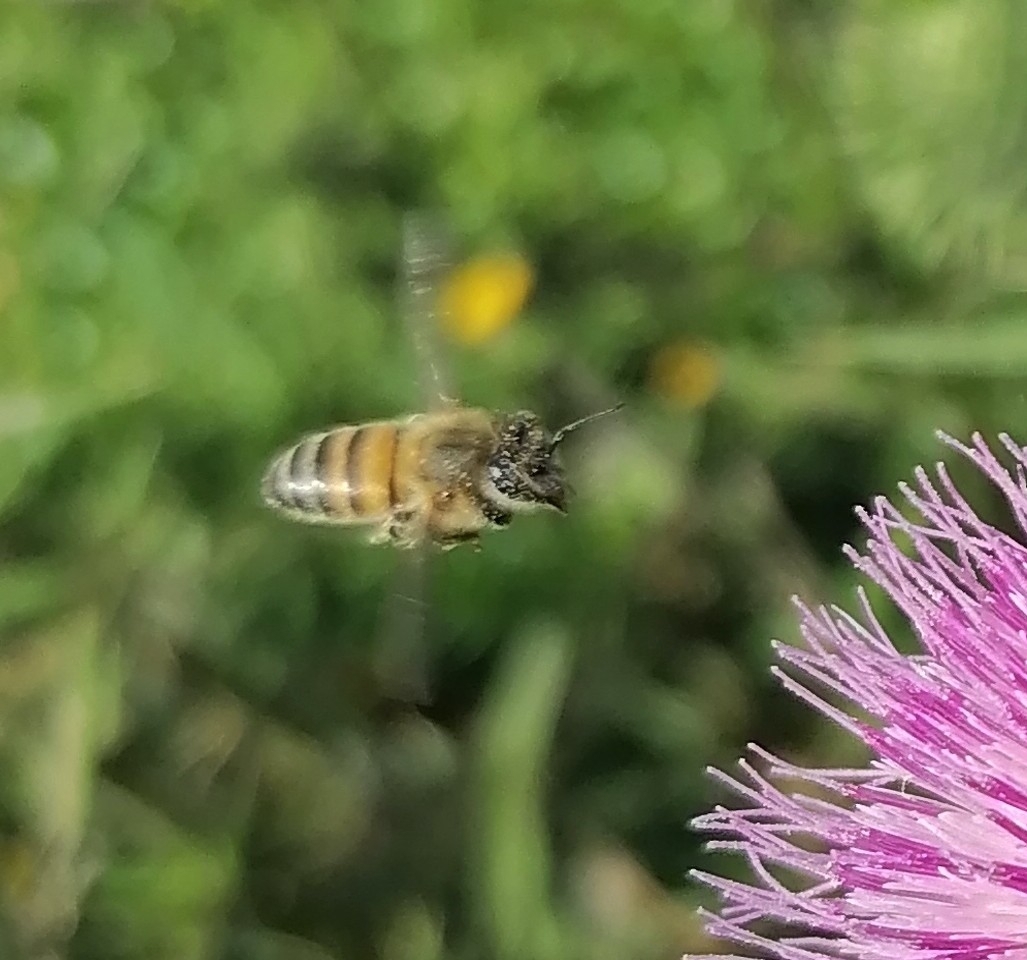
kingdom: Animalia
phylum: Arthropoda
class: Insecta
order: Hymenoptera
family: Apidae
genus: Apis
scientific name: Apis mellifera
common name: Honey bee
